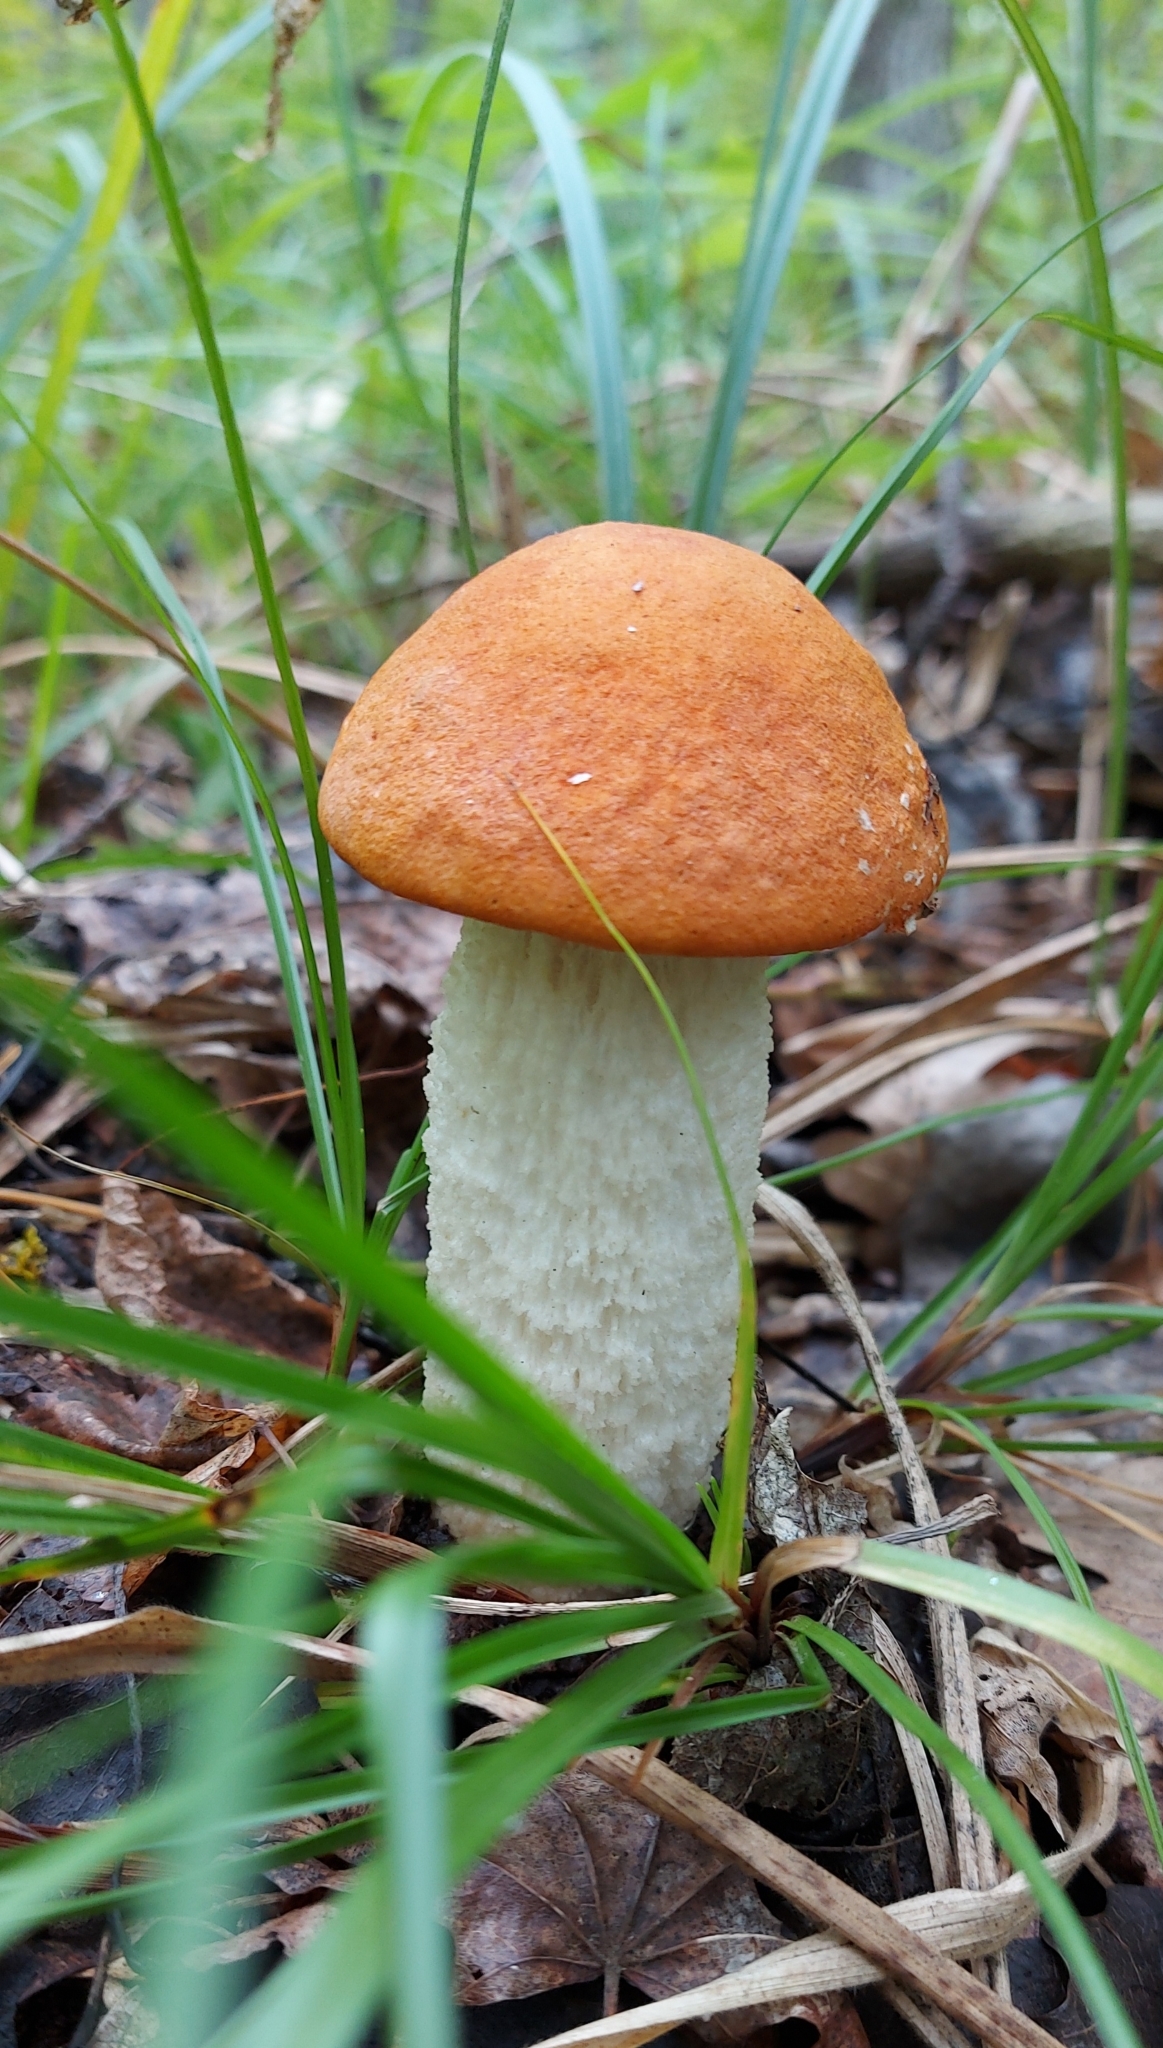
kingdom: Fungi
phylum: Basidiomycota
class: Agaricomycetes
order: Boletales
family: Boletaceae
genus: Leccinum
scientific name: Leccinum albostipitatum
